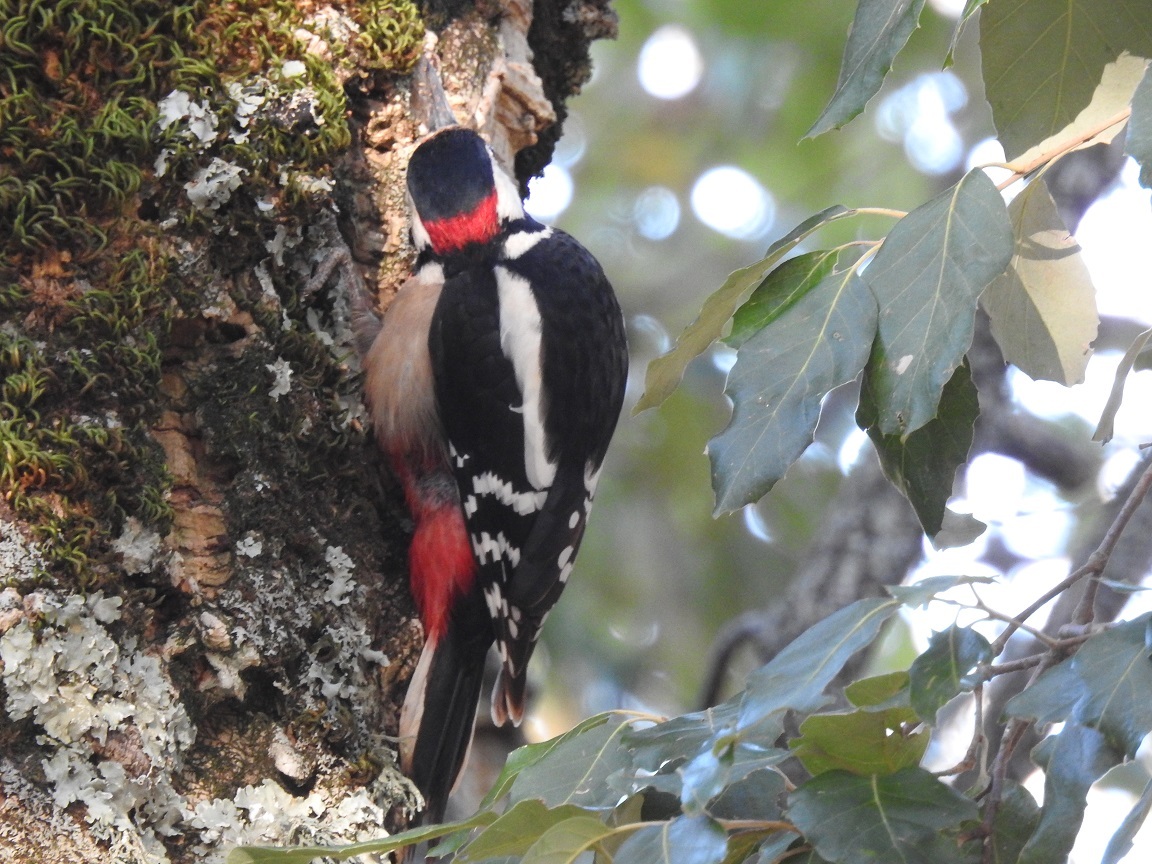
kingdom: Animalia
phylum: Chordata
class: Aves
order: Piciformes
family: Picidae
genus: Dendrocopos
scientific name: Dendrocopos major
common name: Great spotted woodpecker
